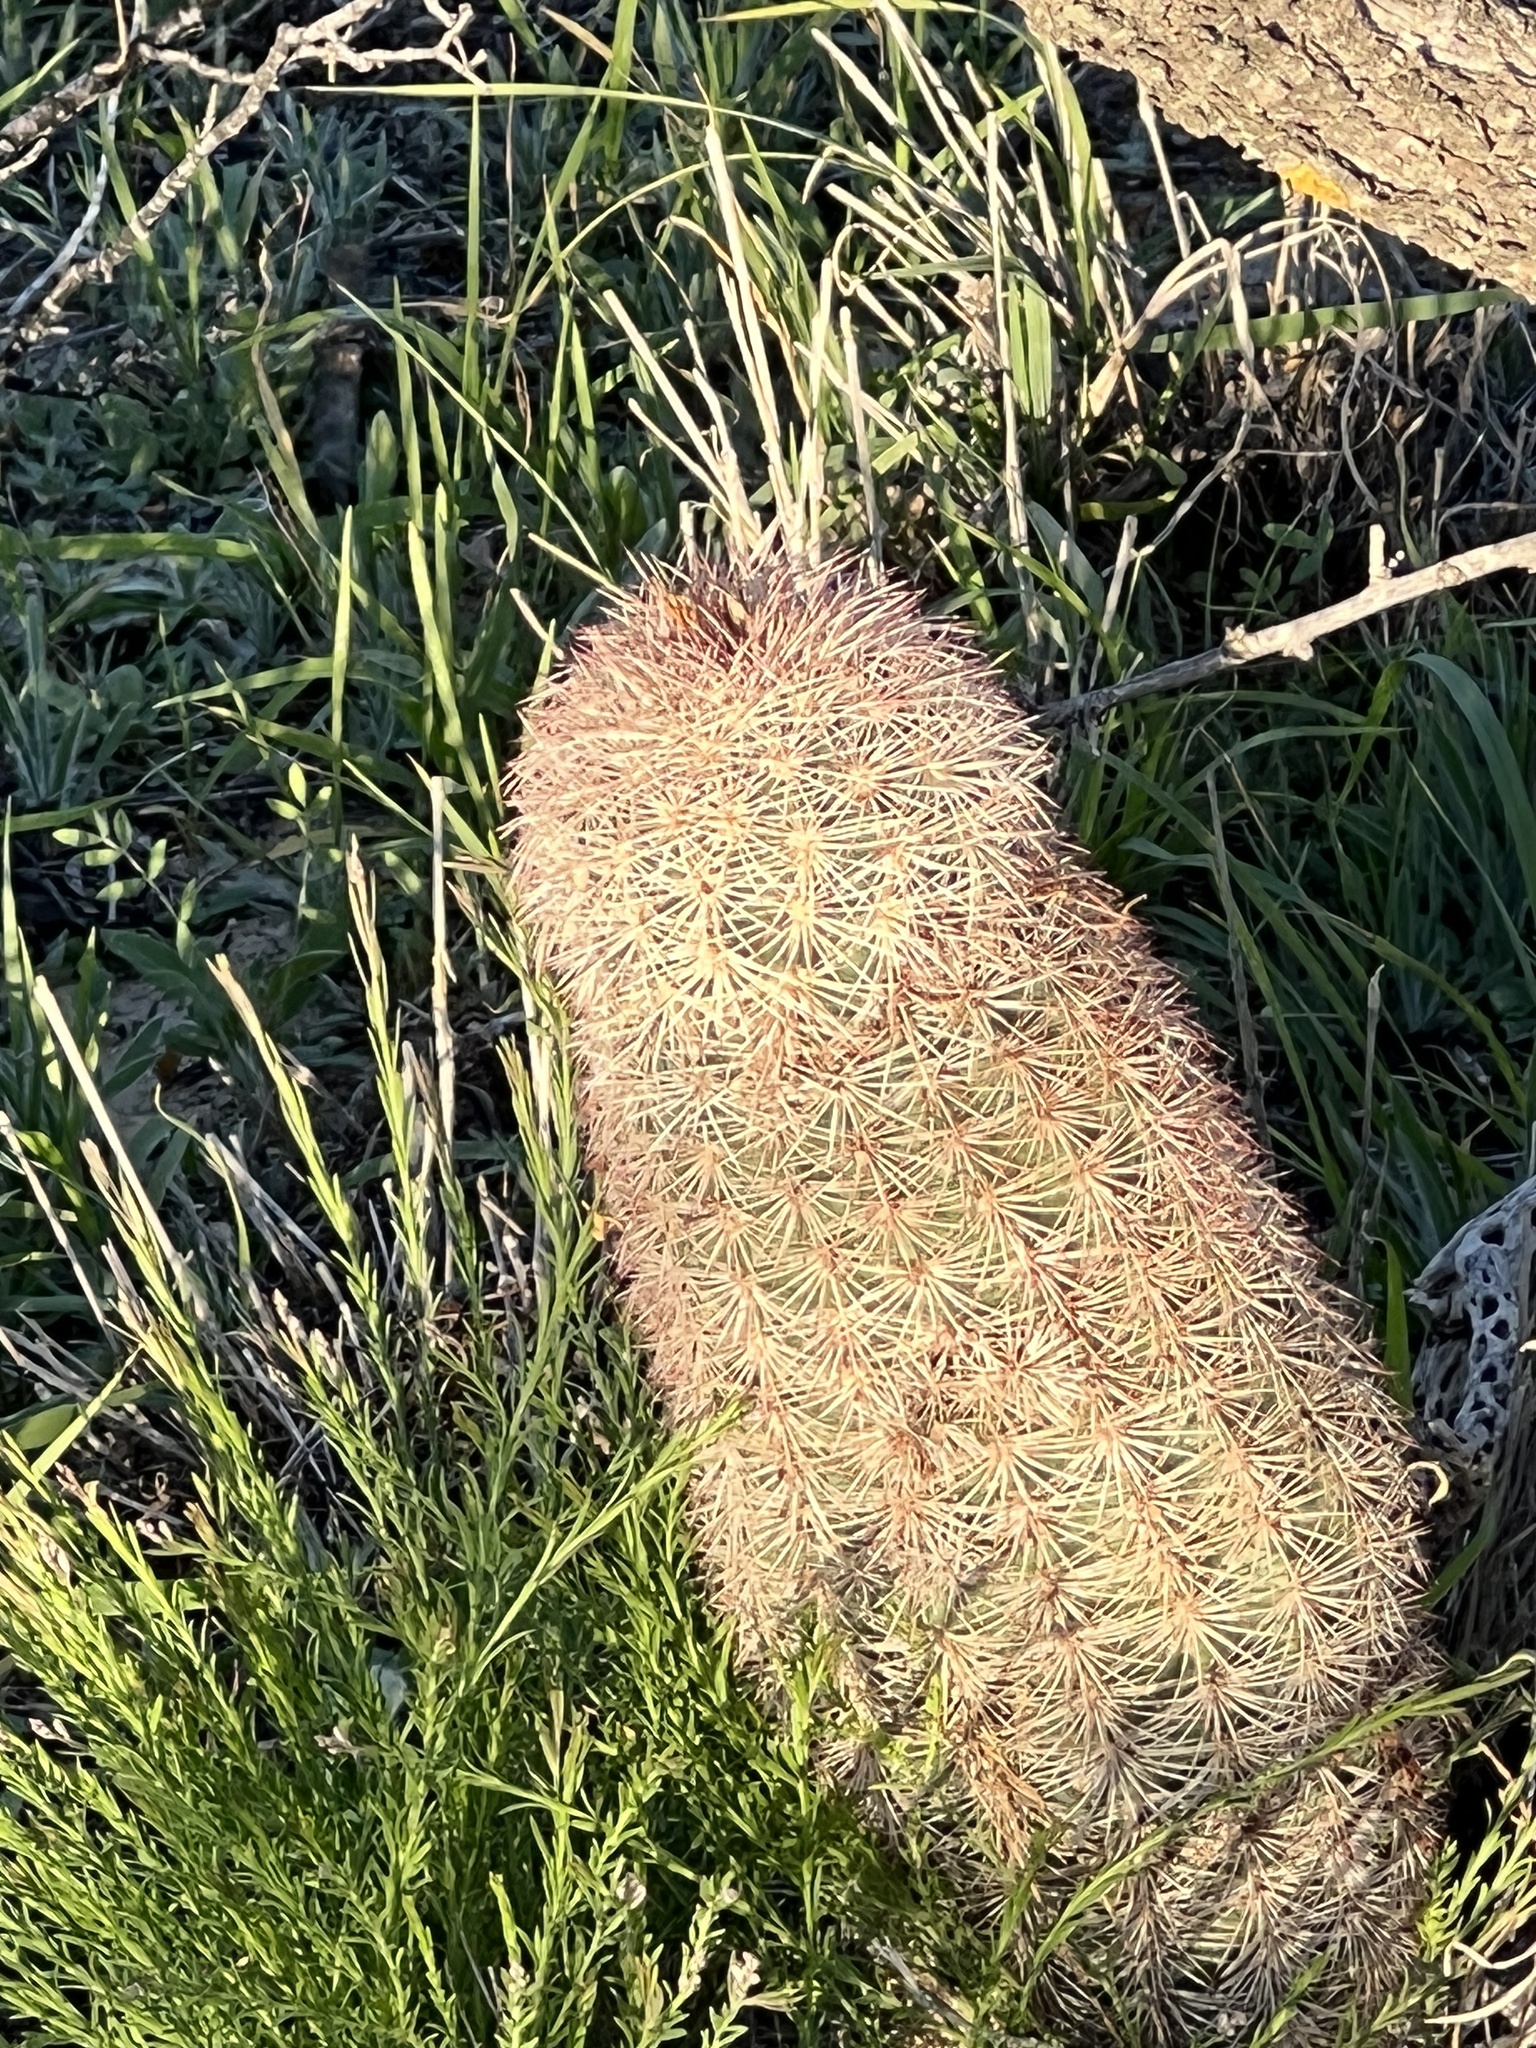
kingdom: Plantae
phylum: Tracheophyta
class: Magnoliopsida
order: Caryophyllales
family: Cactaceae
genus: Echinocereus
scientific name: Echinocereus dasyacanthus
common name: Spiny hedgehog cactus
